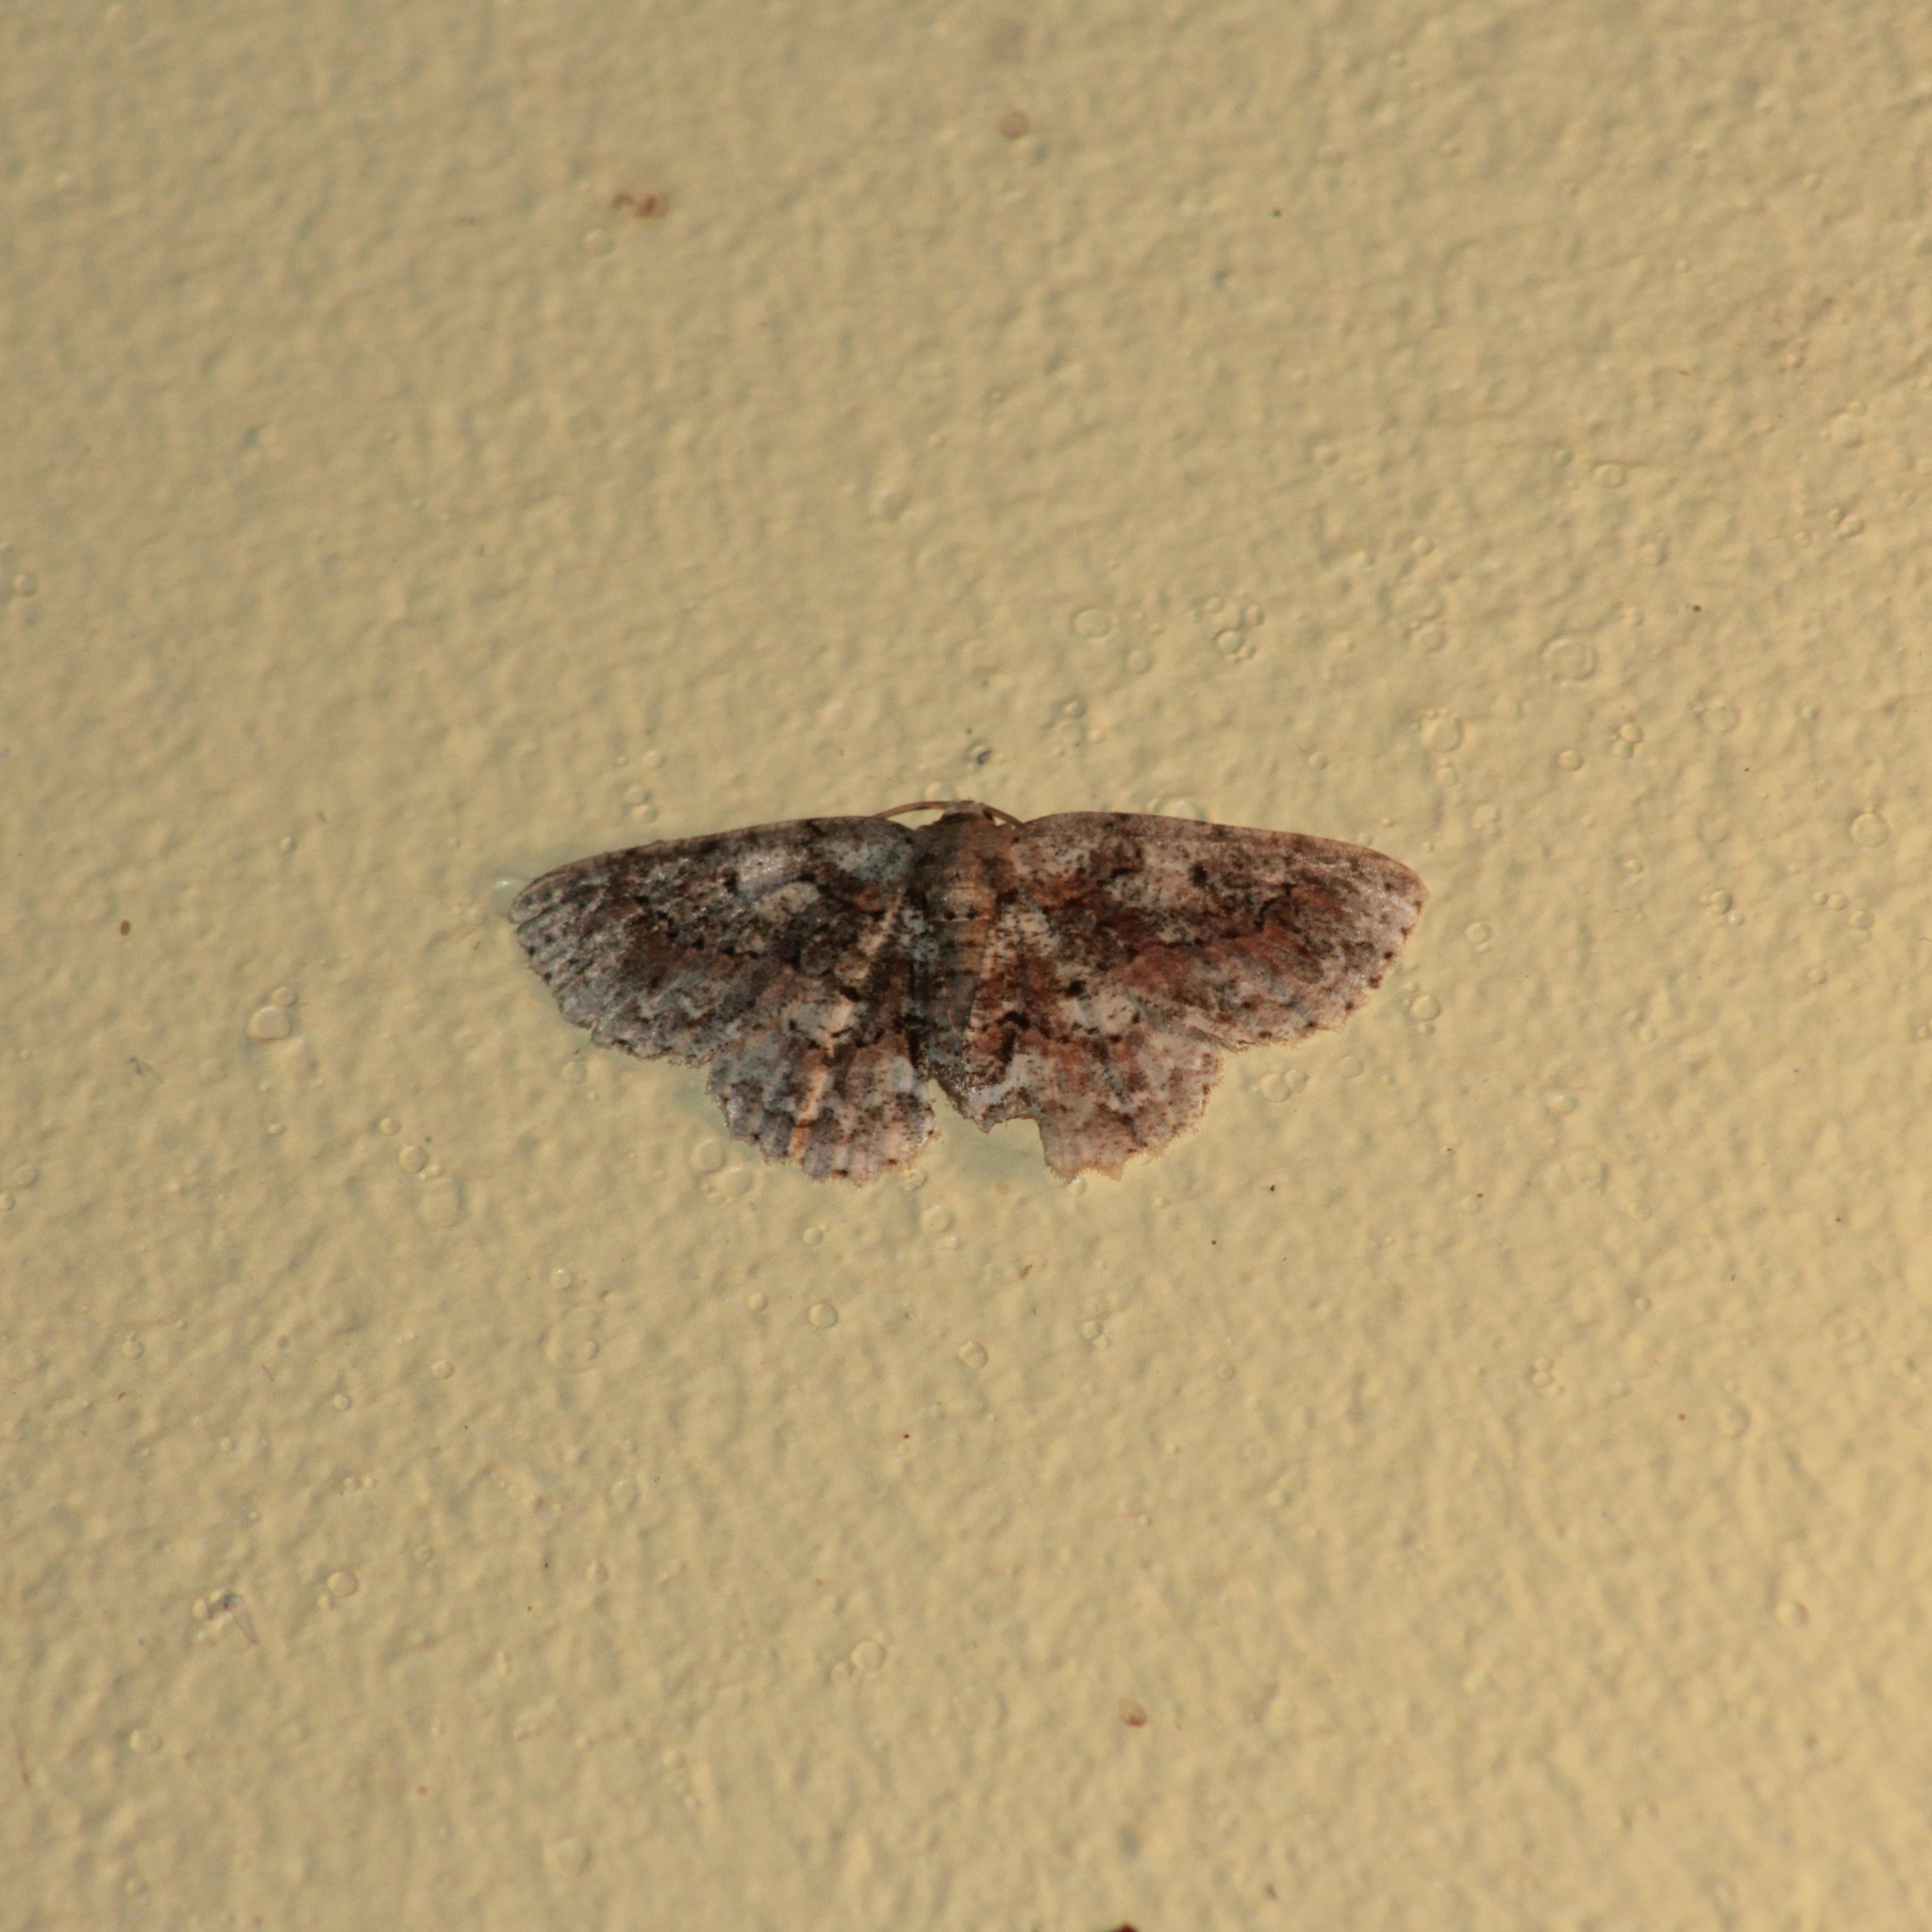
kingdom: Animalia
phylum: Arthropoda
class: Insecta
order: Lepidoptera
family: Geometridae
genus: Bryoptera
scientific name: Bryoptera hypomelas
